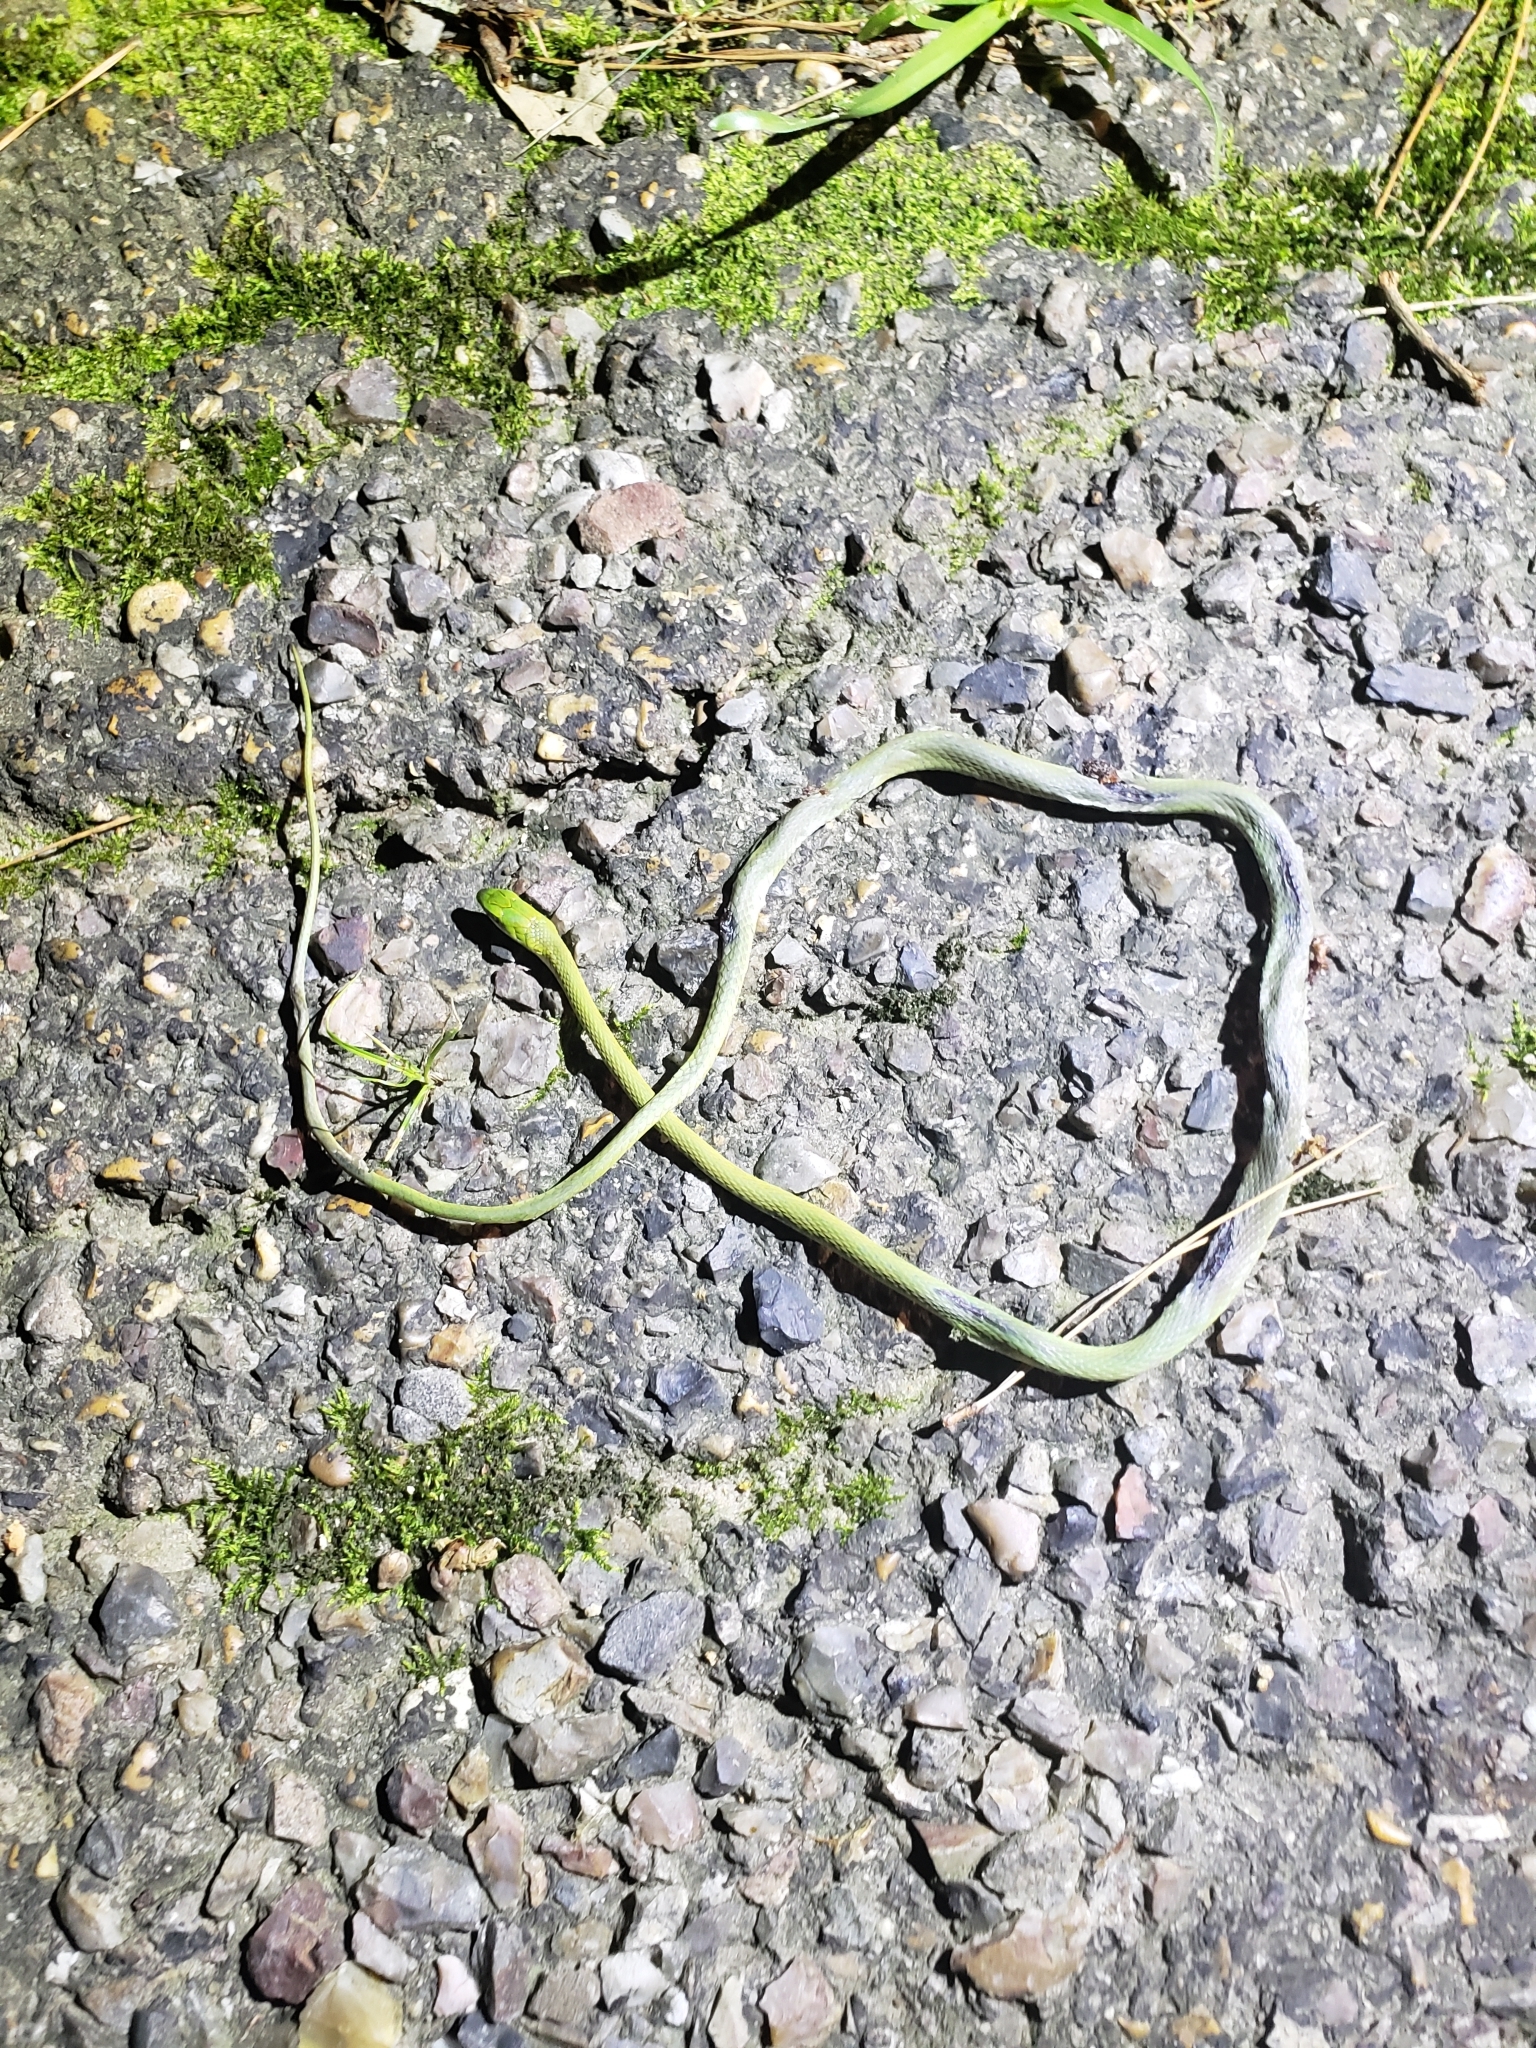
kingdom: Animalia
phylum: Chordata
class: Squamata
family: Colubridae
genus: Opheodrys
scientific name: Opheodrys aestivus
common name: Rough greensnake
